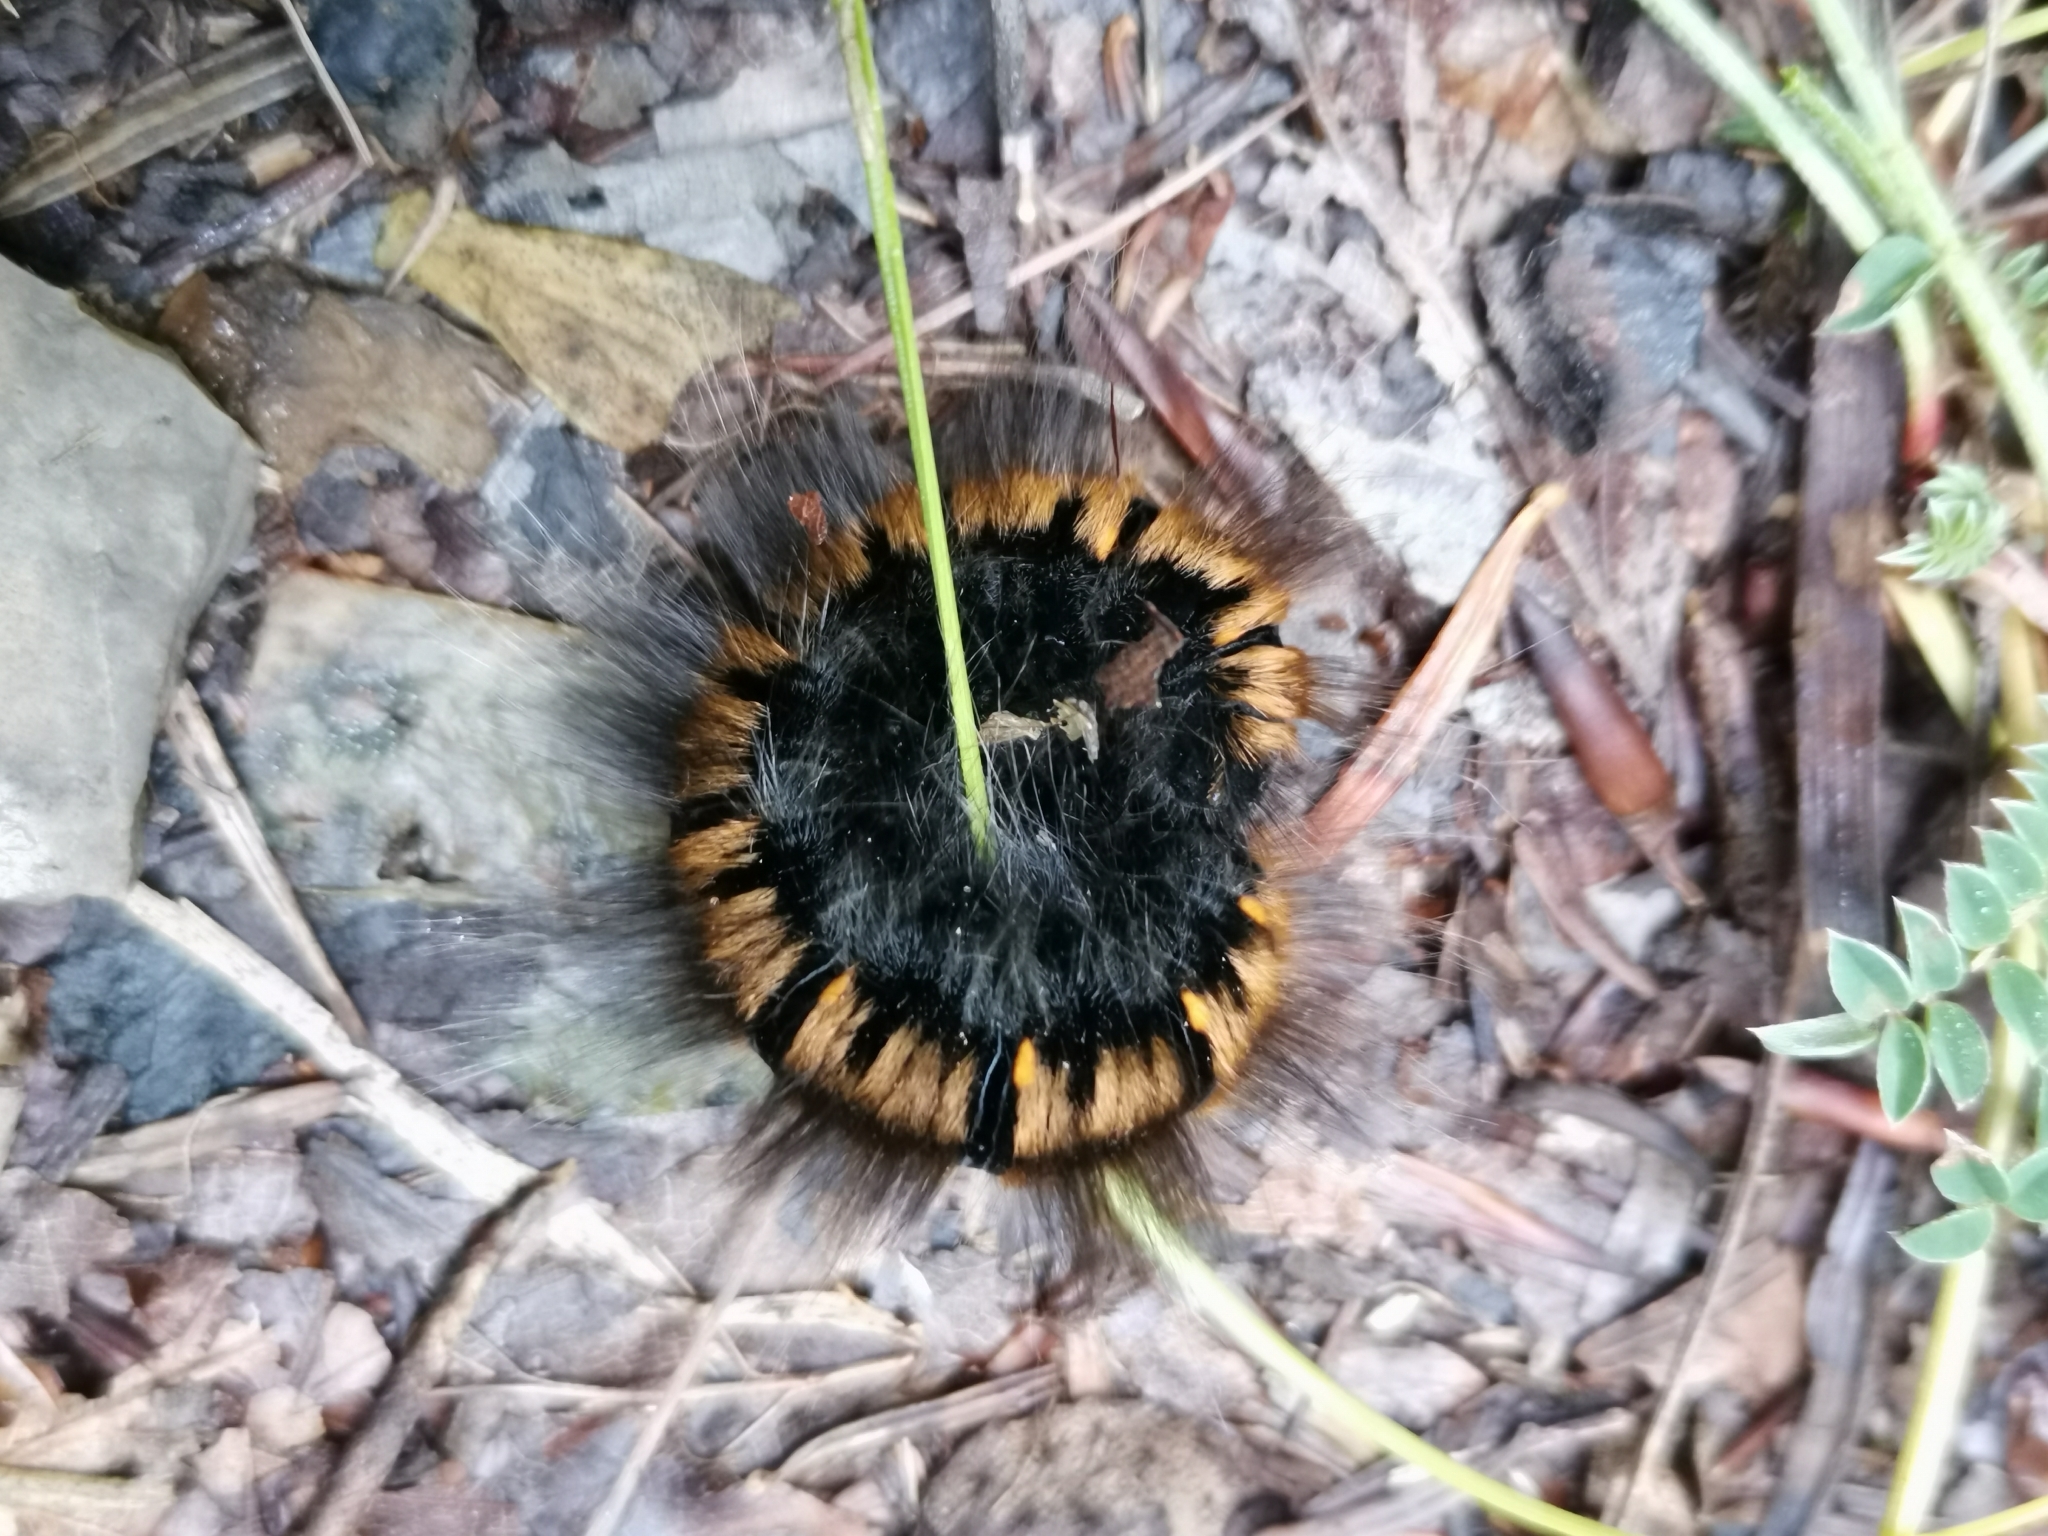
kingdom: Animalia
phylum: Arthropoda
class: Insecta
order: Lepidoptera
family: Lasiocampidae
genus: Macrothylacia
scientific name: Macrothylacia rubi
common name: Fox moth
